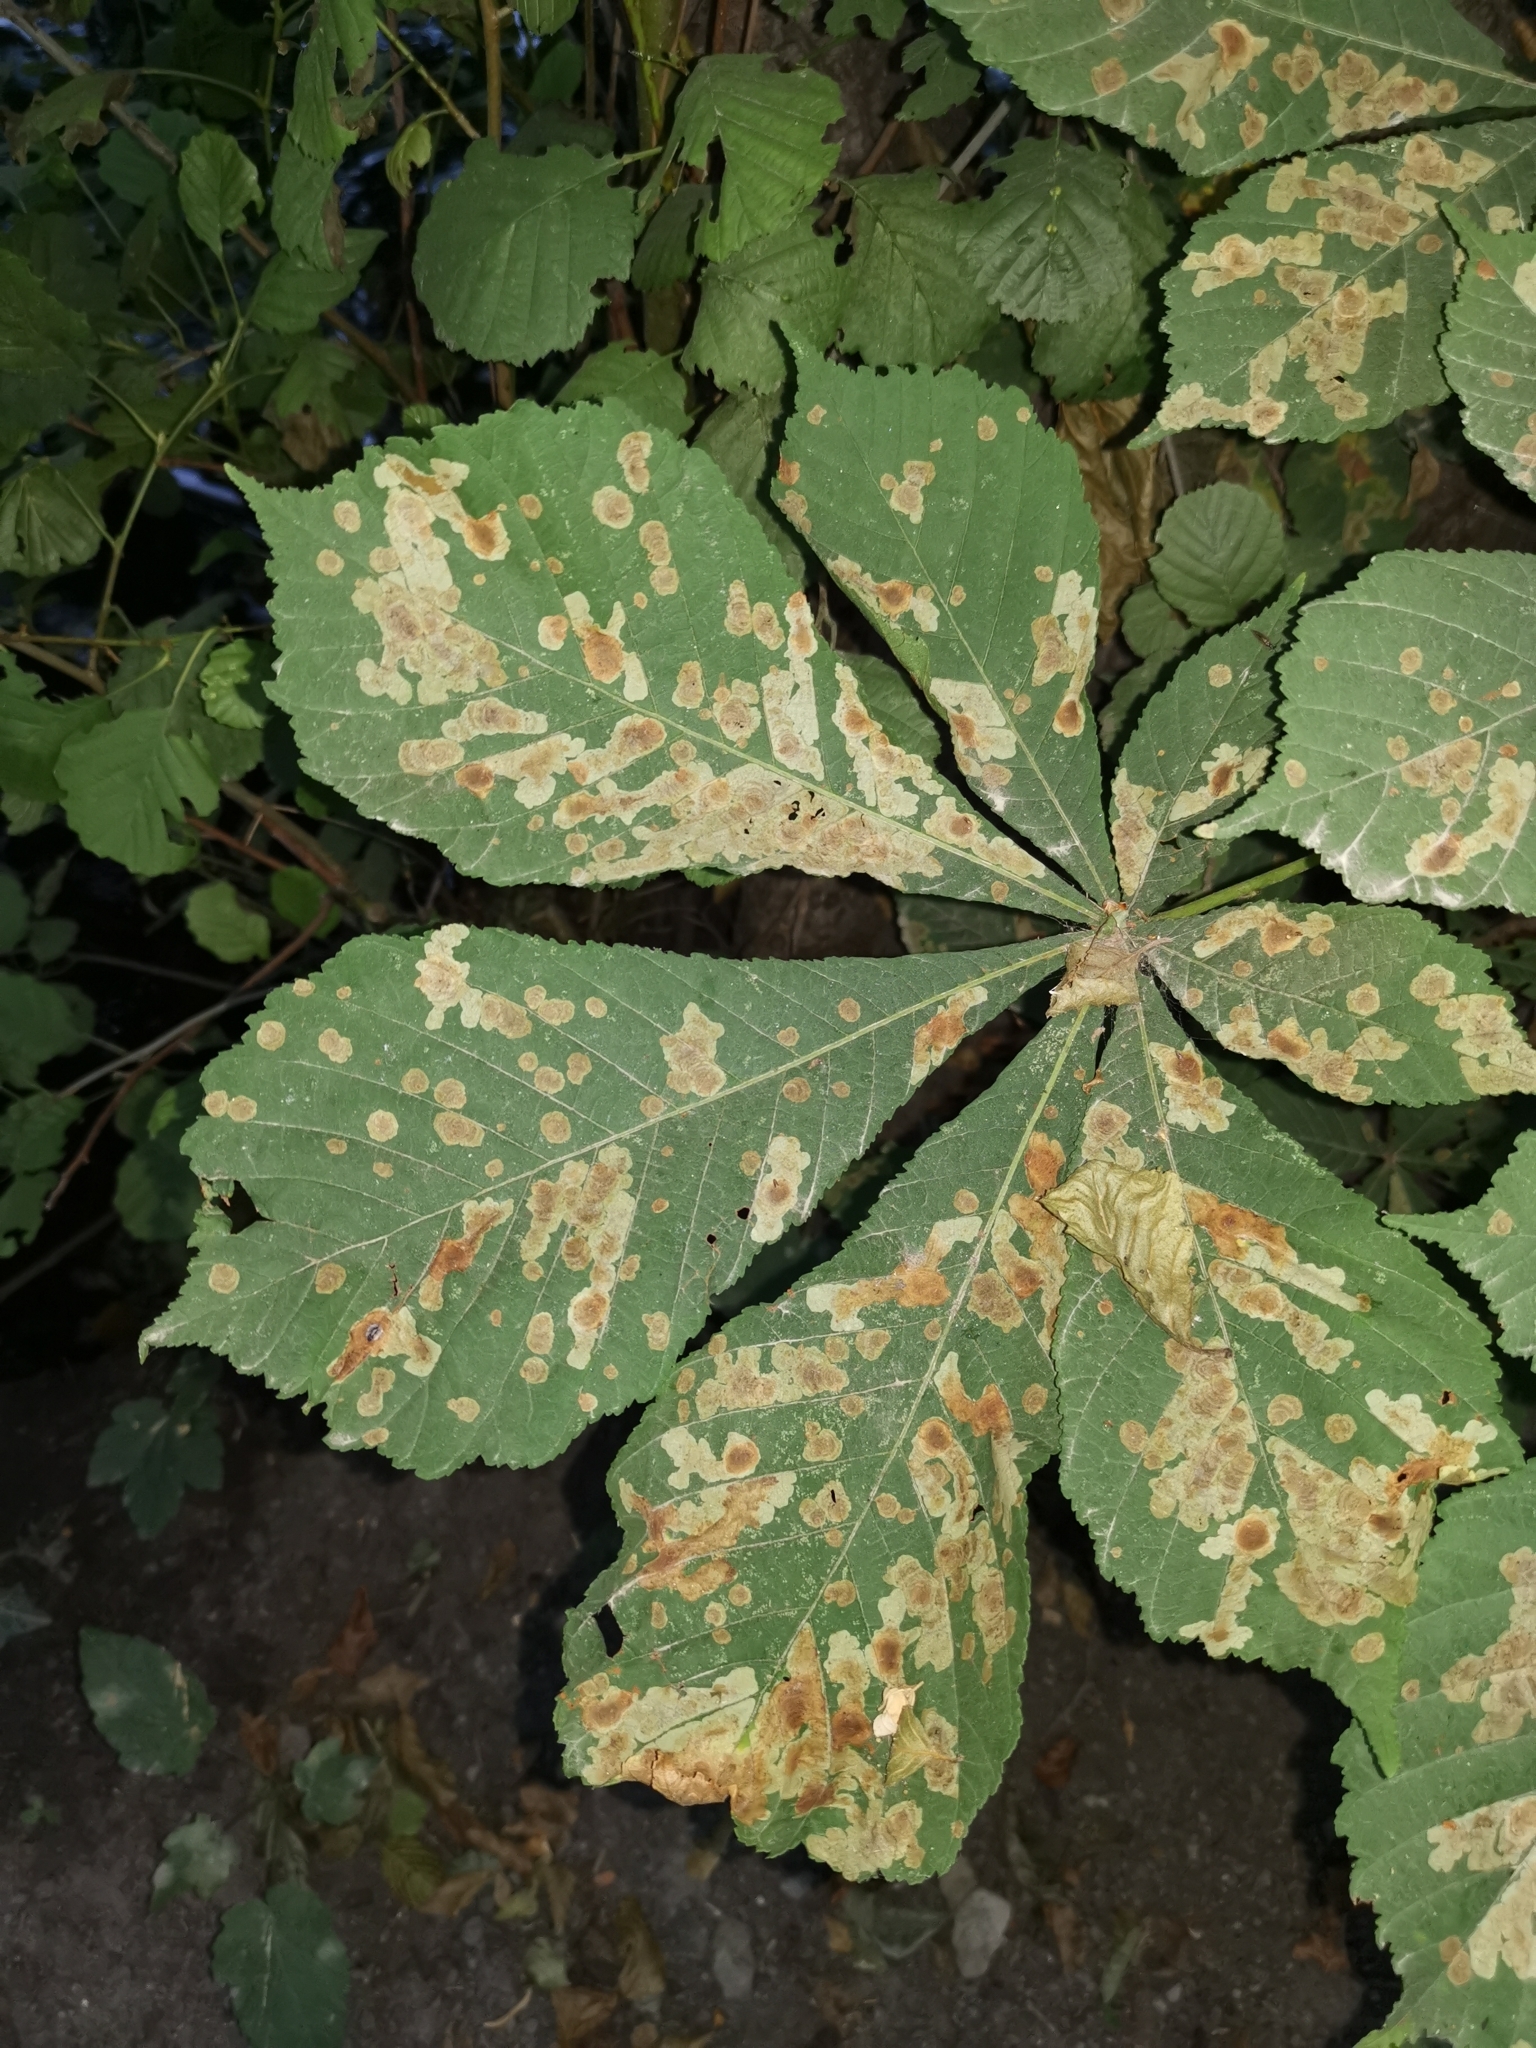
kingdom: Animalia
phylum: Arthropoda
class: Insecta
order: Lepidoptera
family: Gracillariidae
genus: Cameraria
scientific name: Cameraria ohridella
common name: Horse-chestnut leaf-miner
